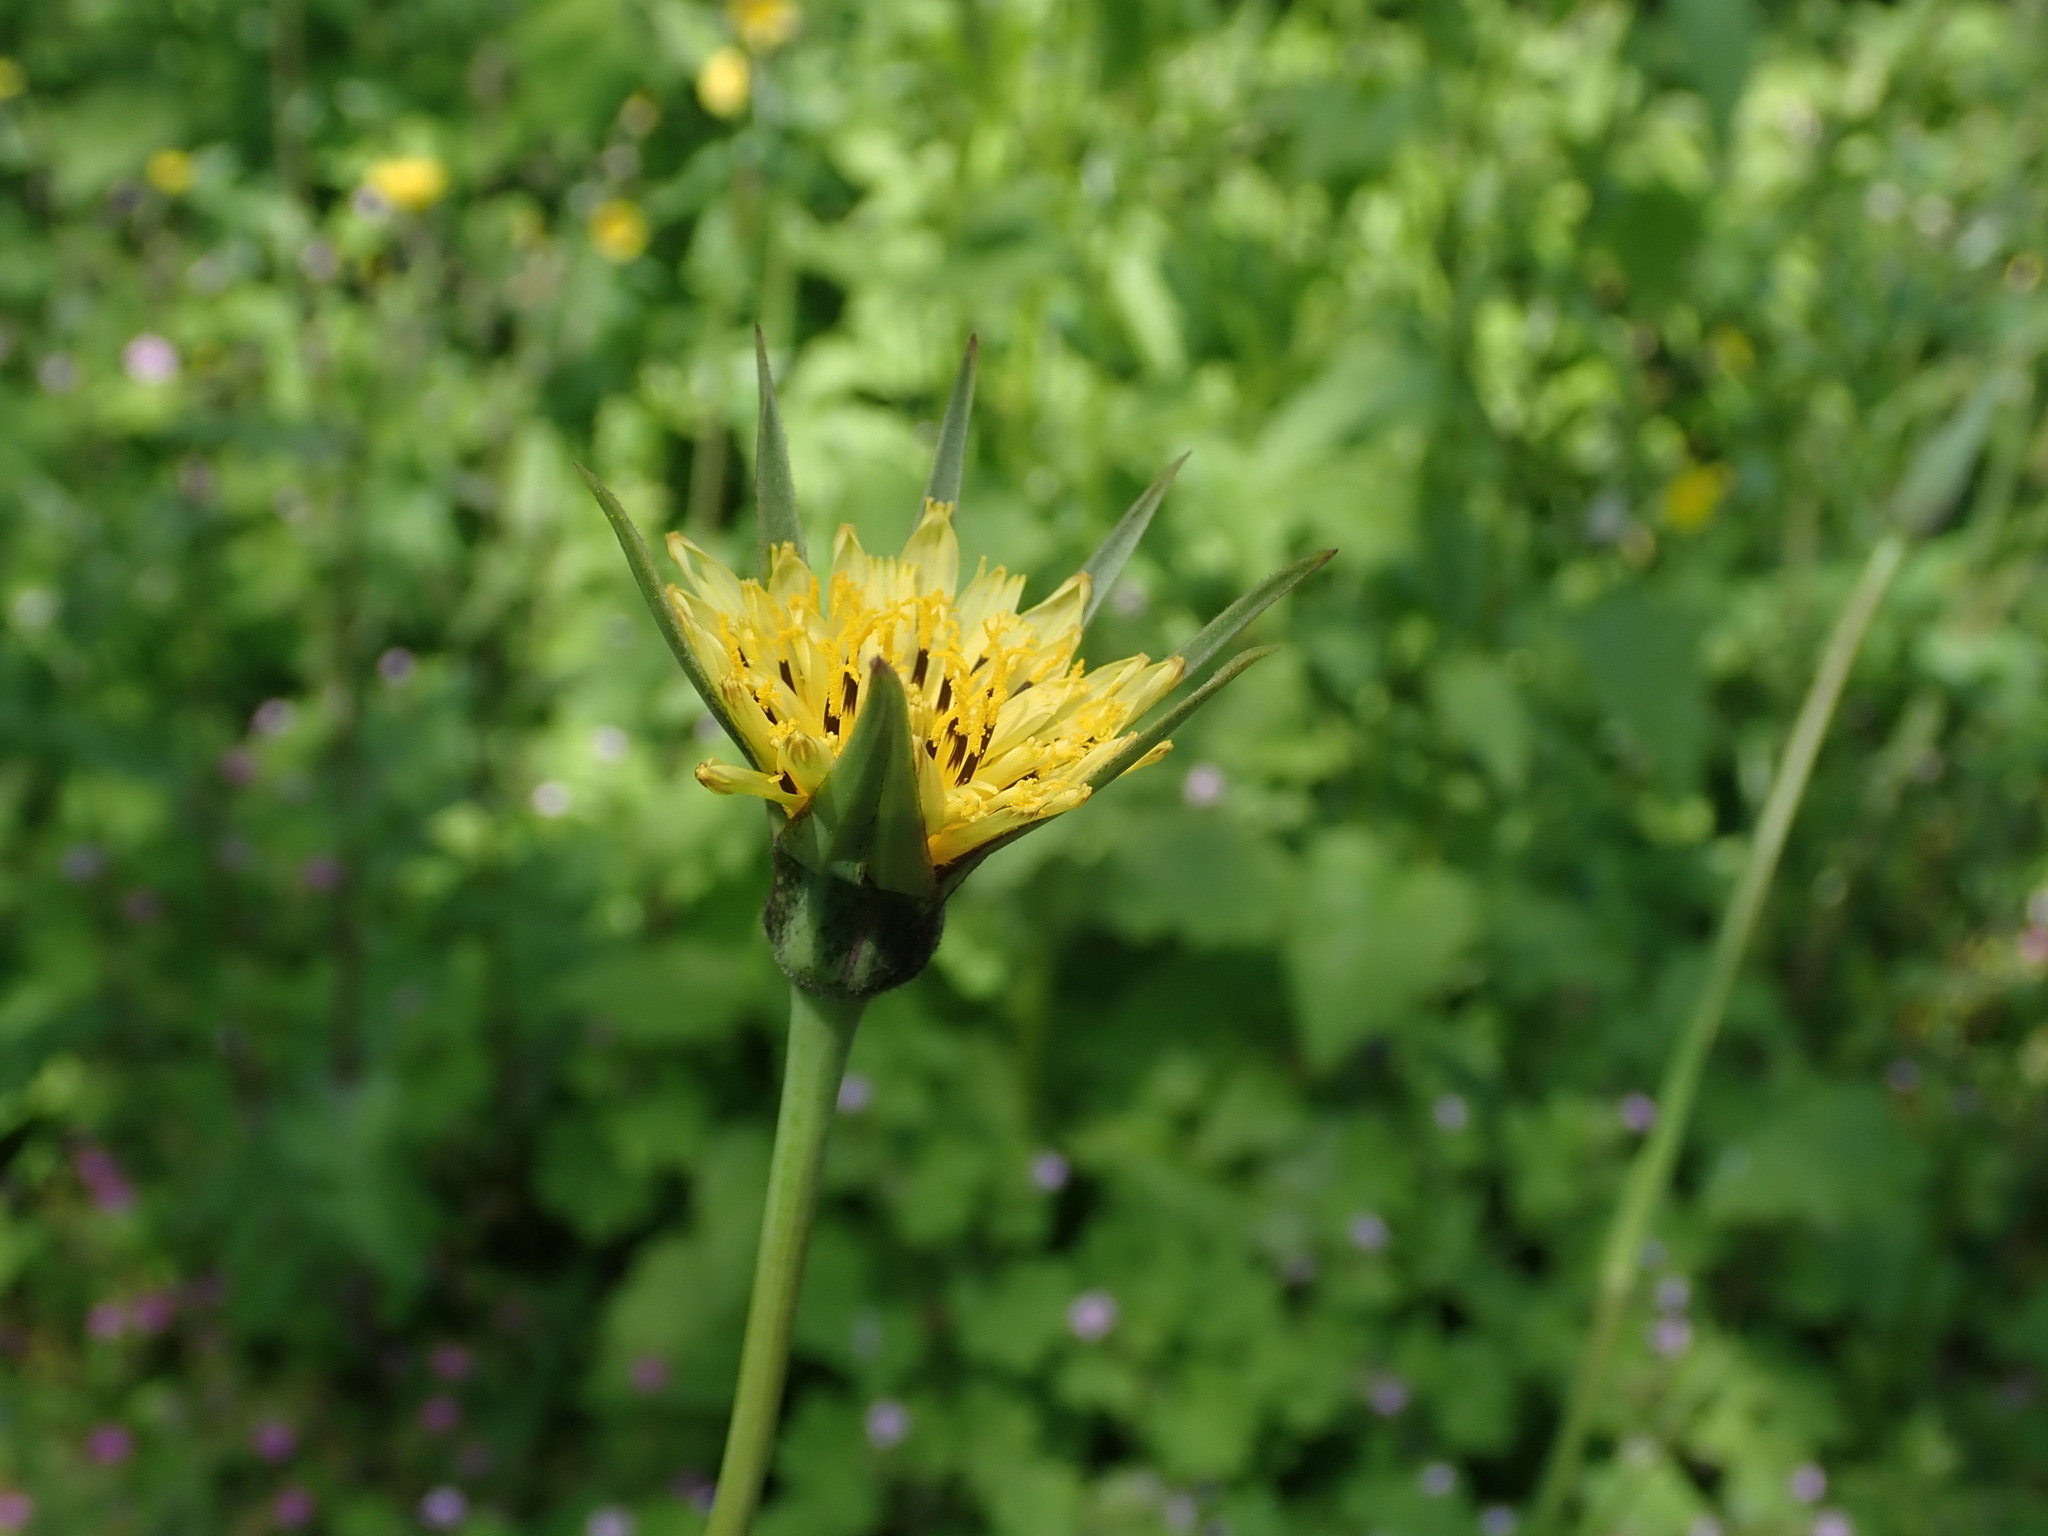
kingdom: Plantae
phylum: Tracheophyta
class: Magnoliopsida
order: Asterales
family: Asteraceae
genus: Tragopogon
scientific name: Tragopogon minor
